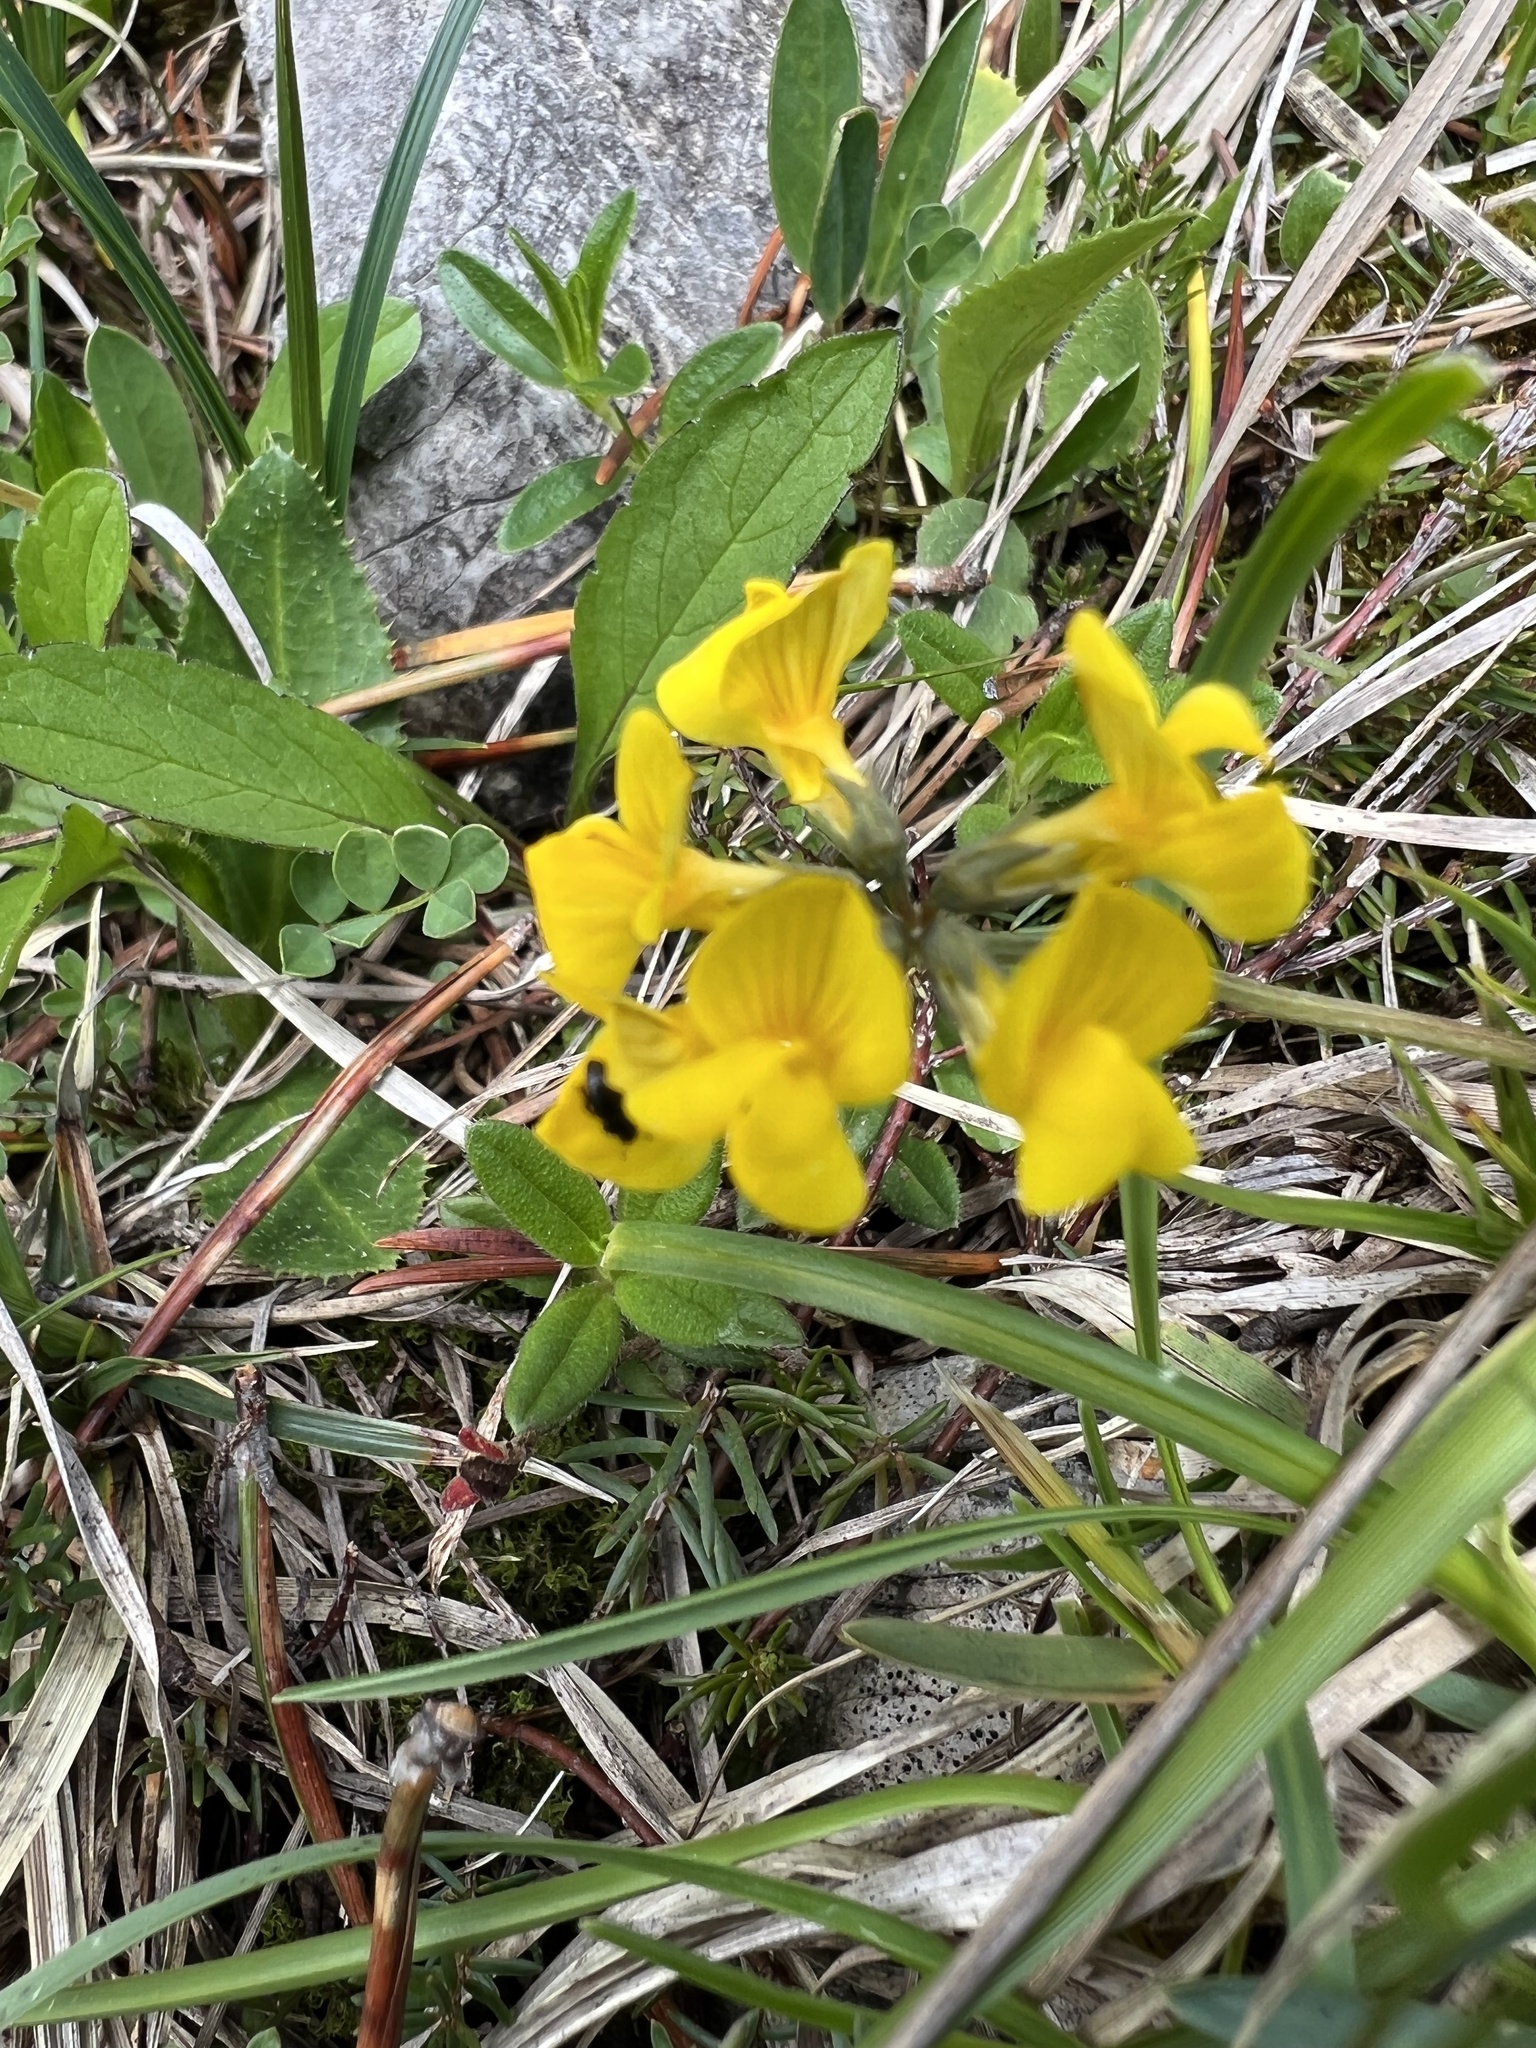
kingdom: Plantae
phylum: Tracheophyta
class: Magnoliopsida
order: Fabales
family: Fabaceae
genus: Hippocrepis
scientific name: Hippocrepis comosa
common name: Horseshoe vetch
